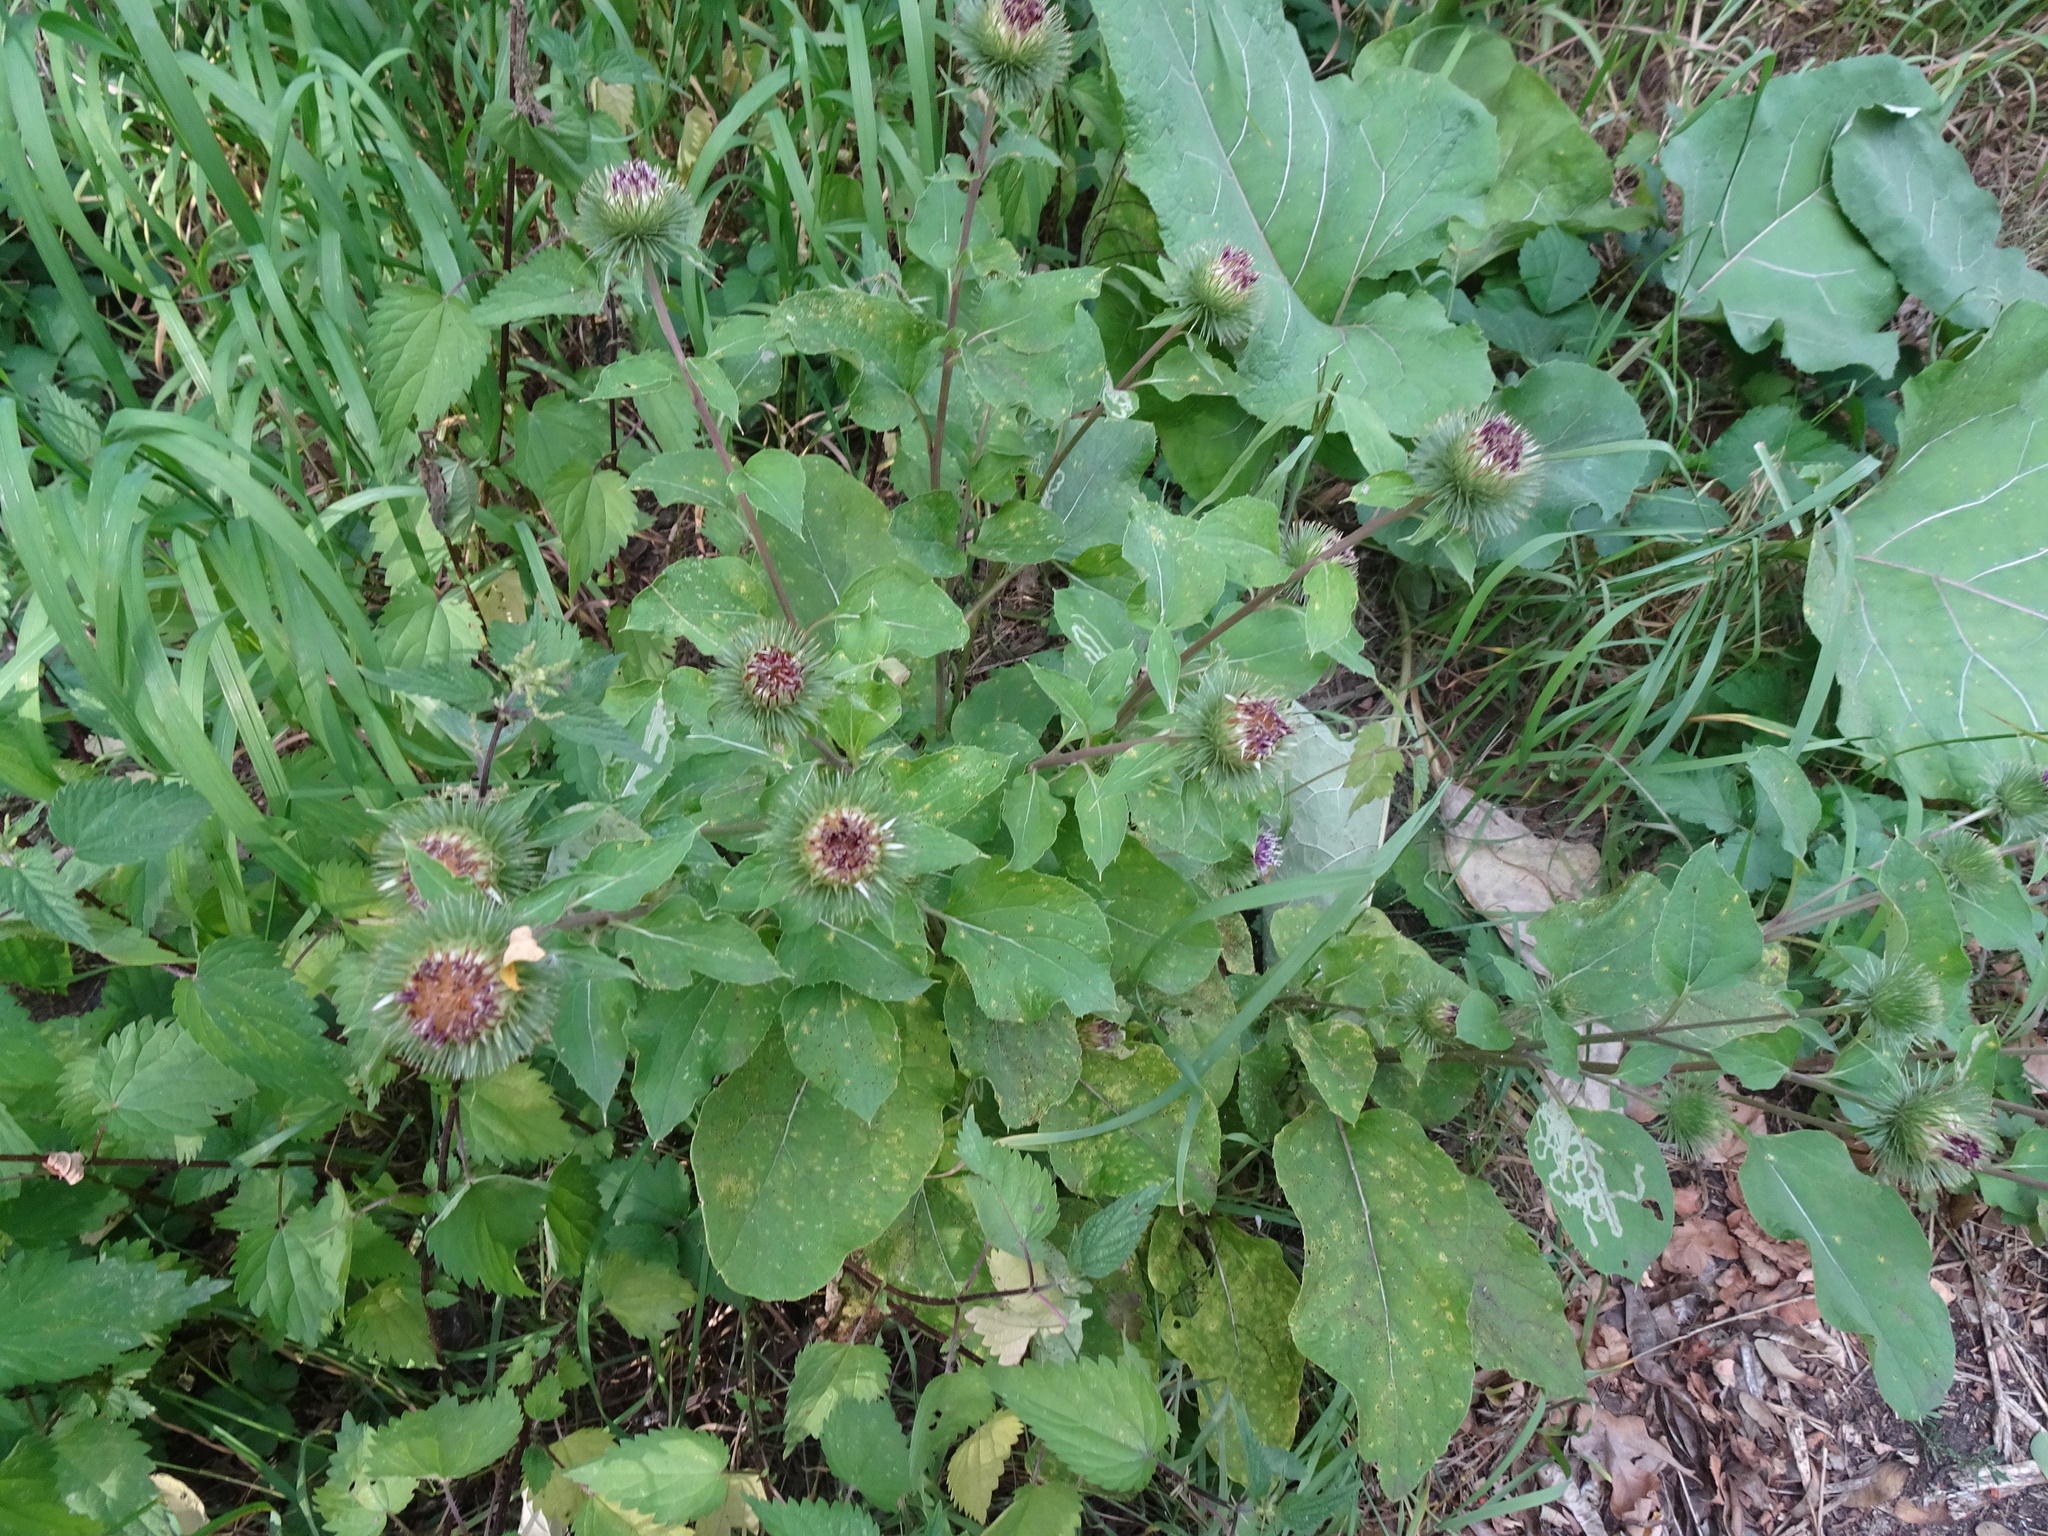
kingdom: Plantae
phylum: Tracheophyta
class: Magnoliopsida
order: Asterales
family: Asteraceae
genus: Arctium
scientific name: Arctium lappa
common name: Greater burdock
